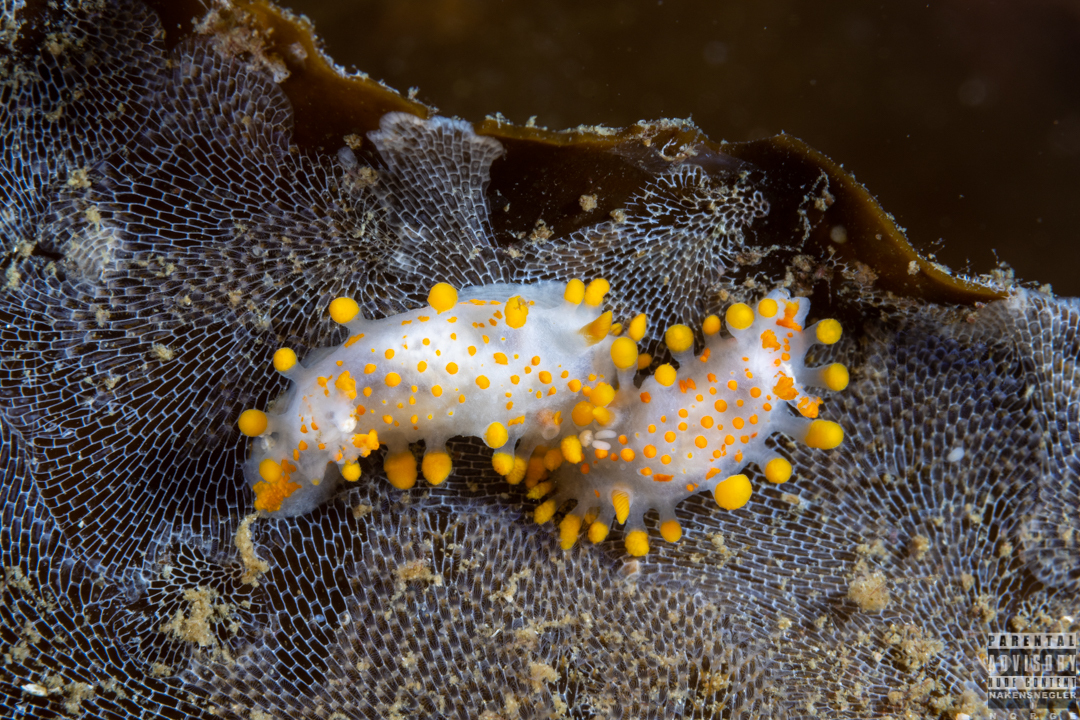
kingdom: Animalia
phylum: Mollusca
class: Gastropoda
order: Nudibranchia
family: Polyceridae
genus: Limacia
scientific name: Limacia clavigera
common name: Orange-clubbed sea slug
